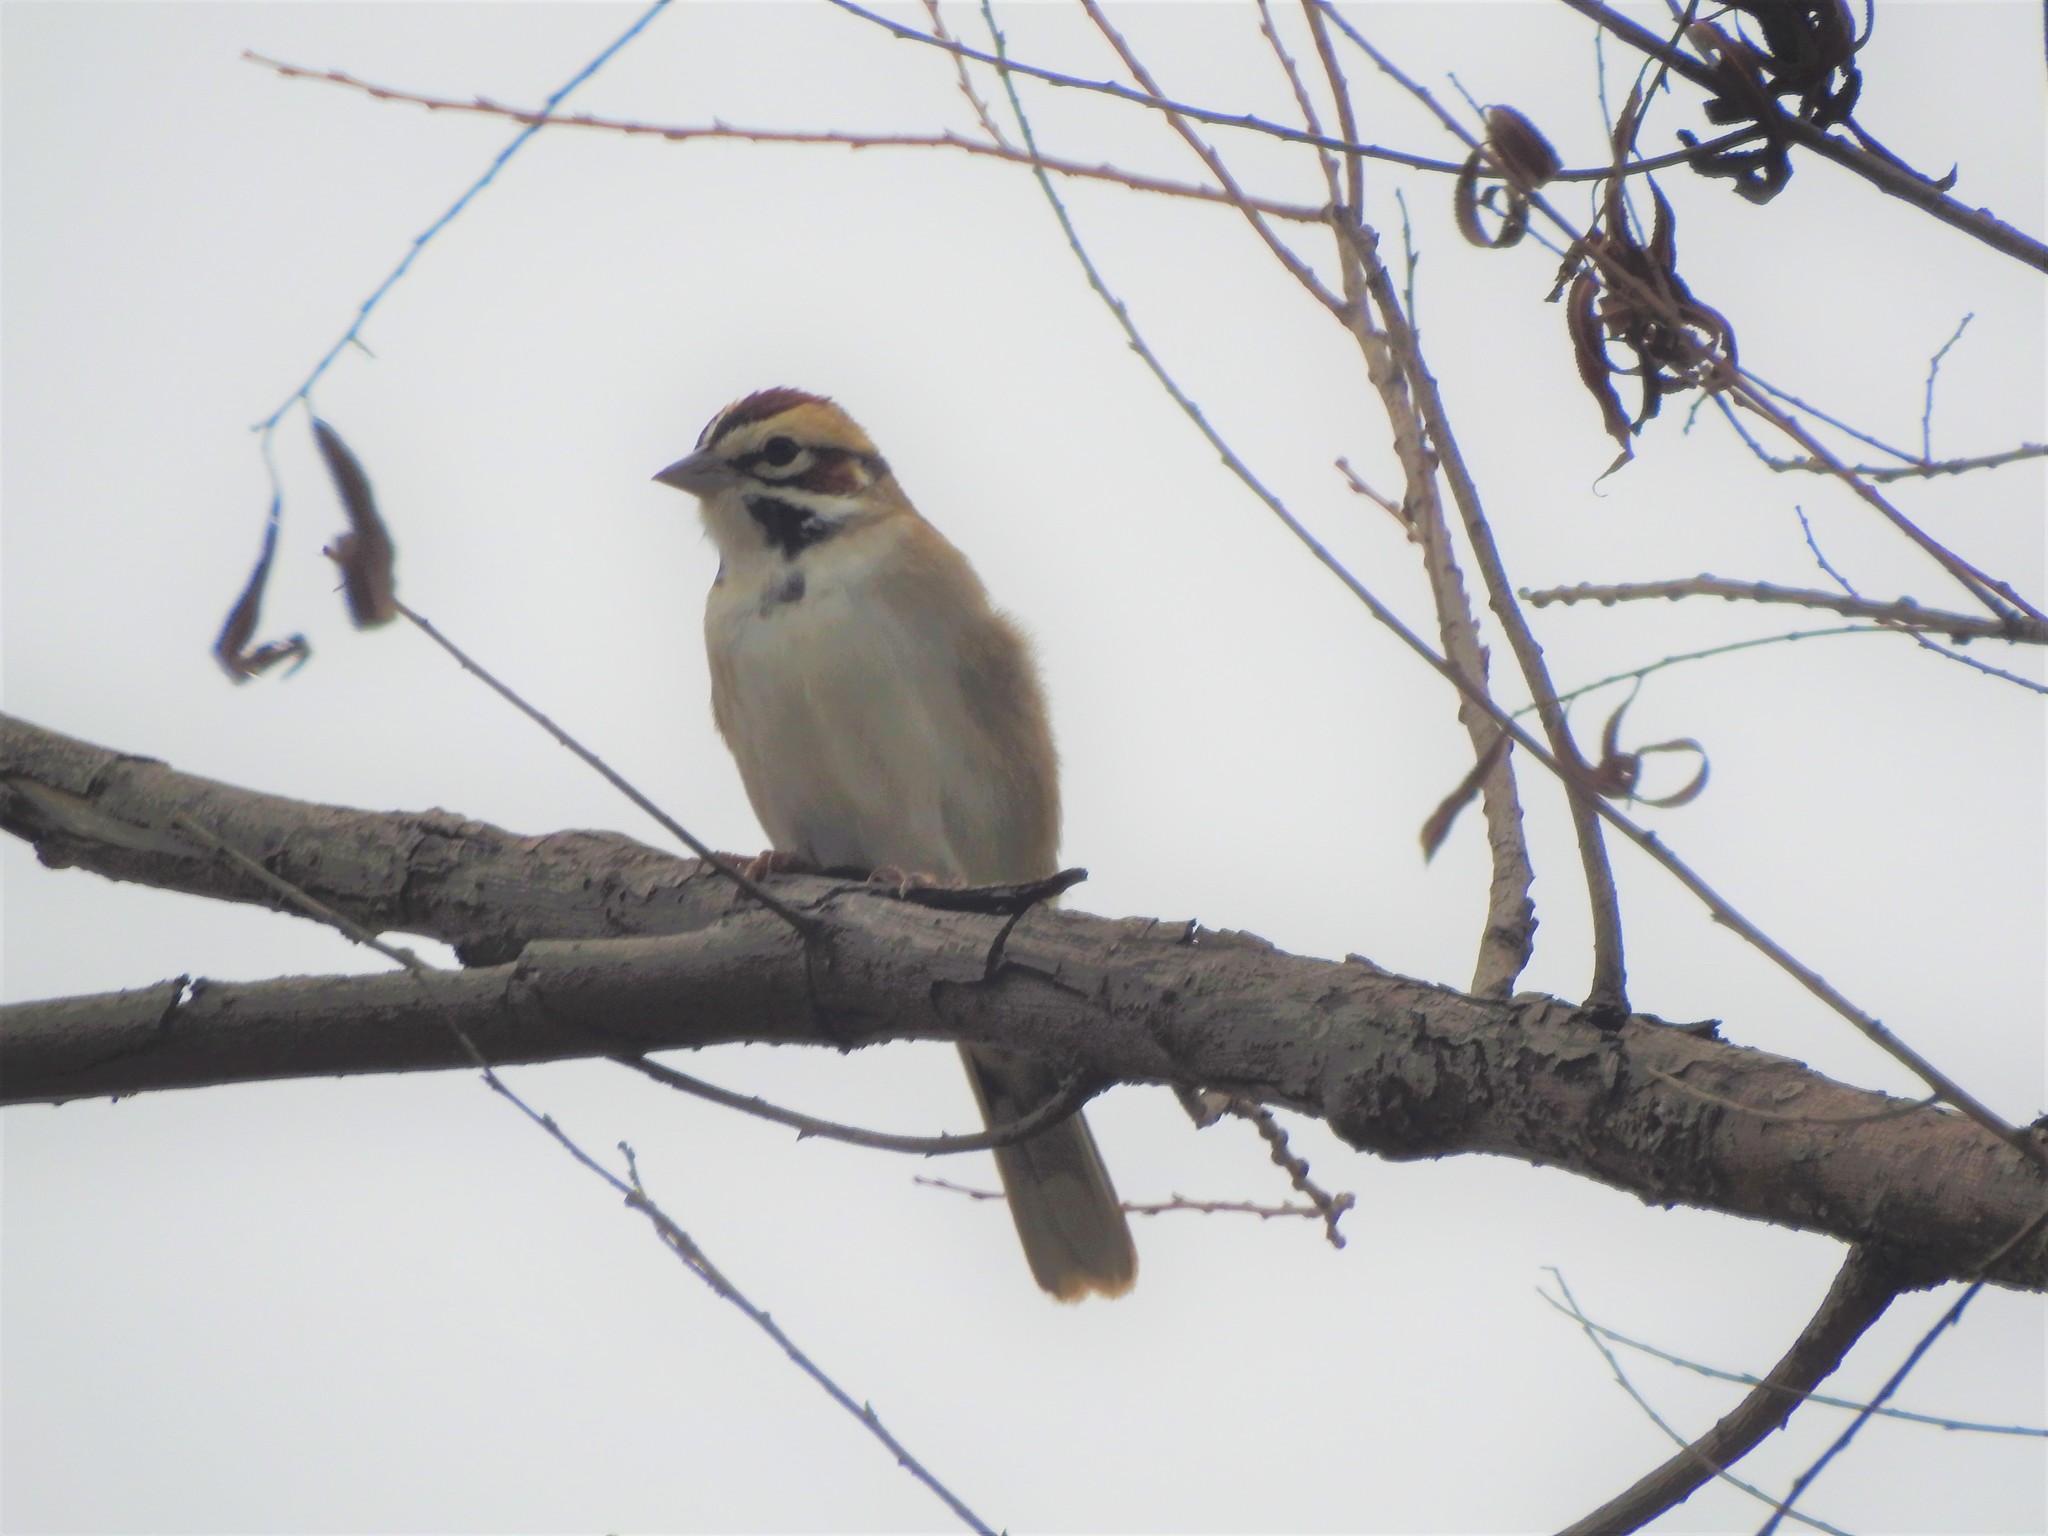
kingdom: Animalia
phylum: Chordata
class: Aves
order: Passeriformes
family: Passerellidae
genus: Chondestes
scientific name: Chondestes grammacus
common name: Lark sparrow
